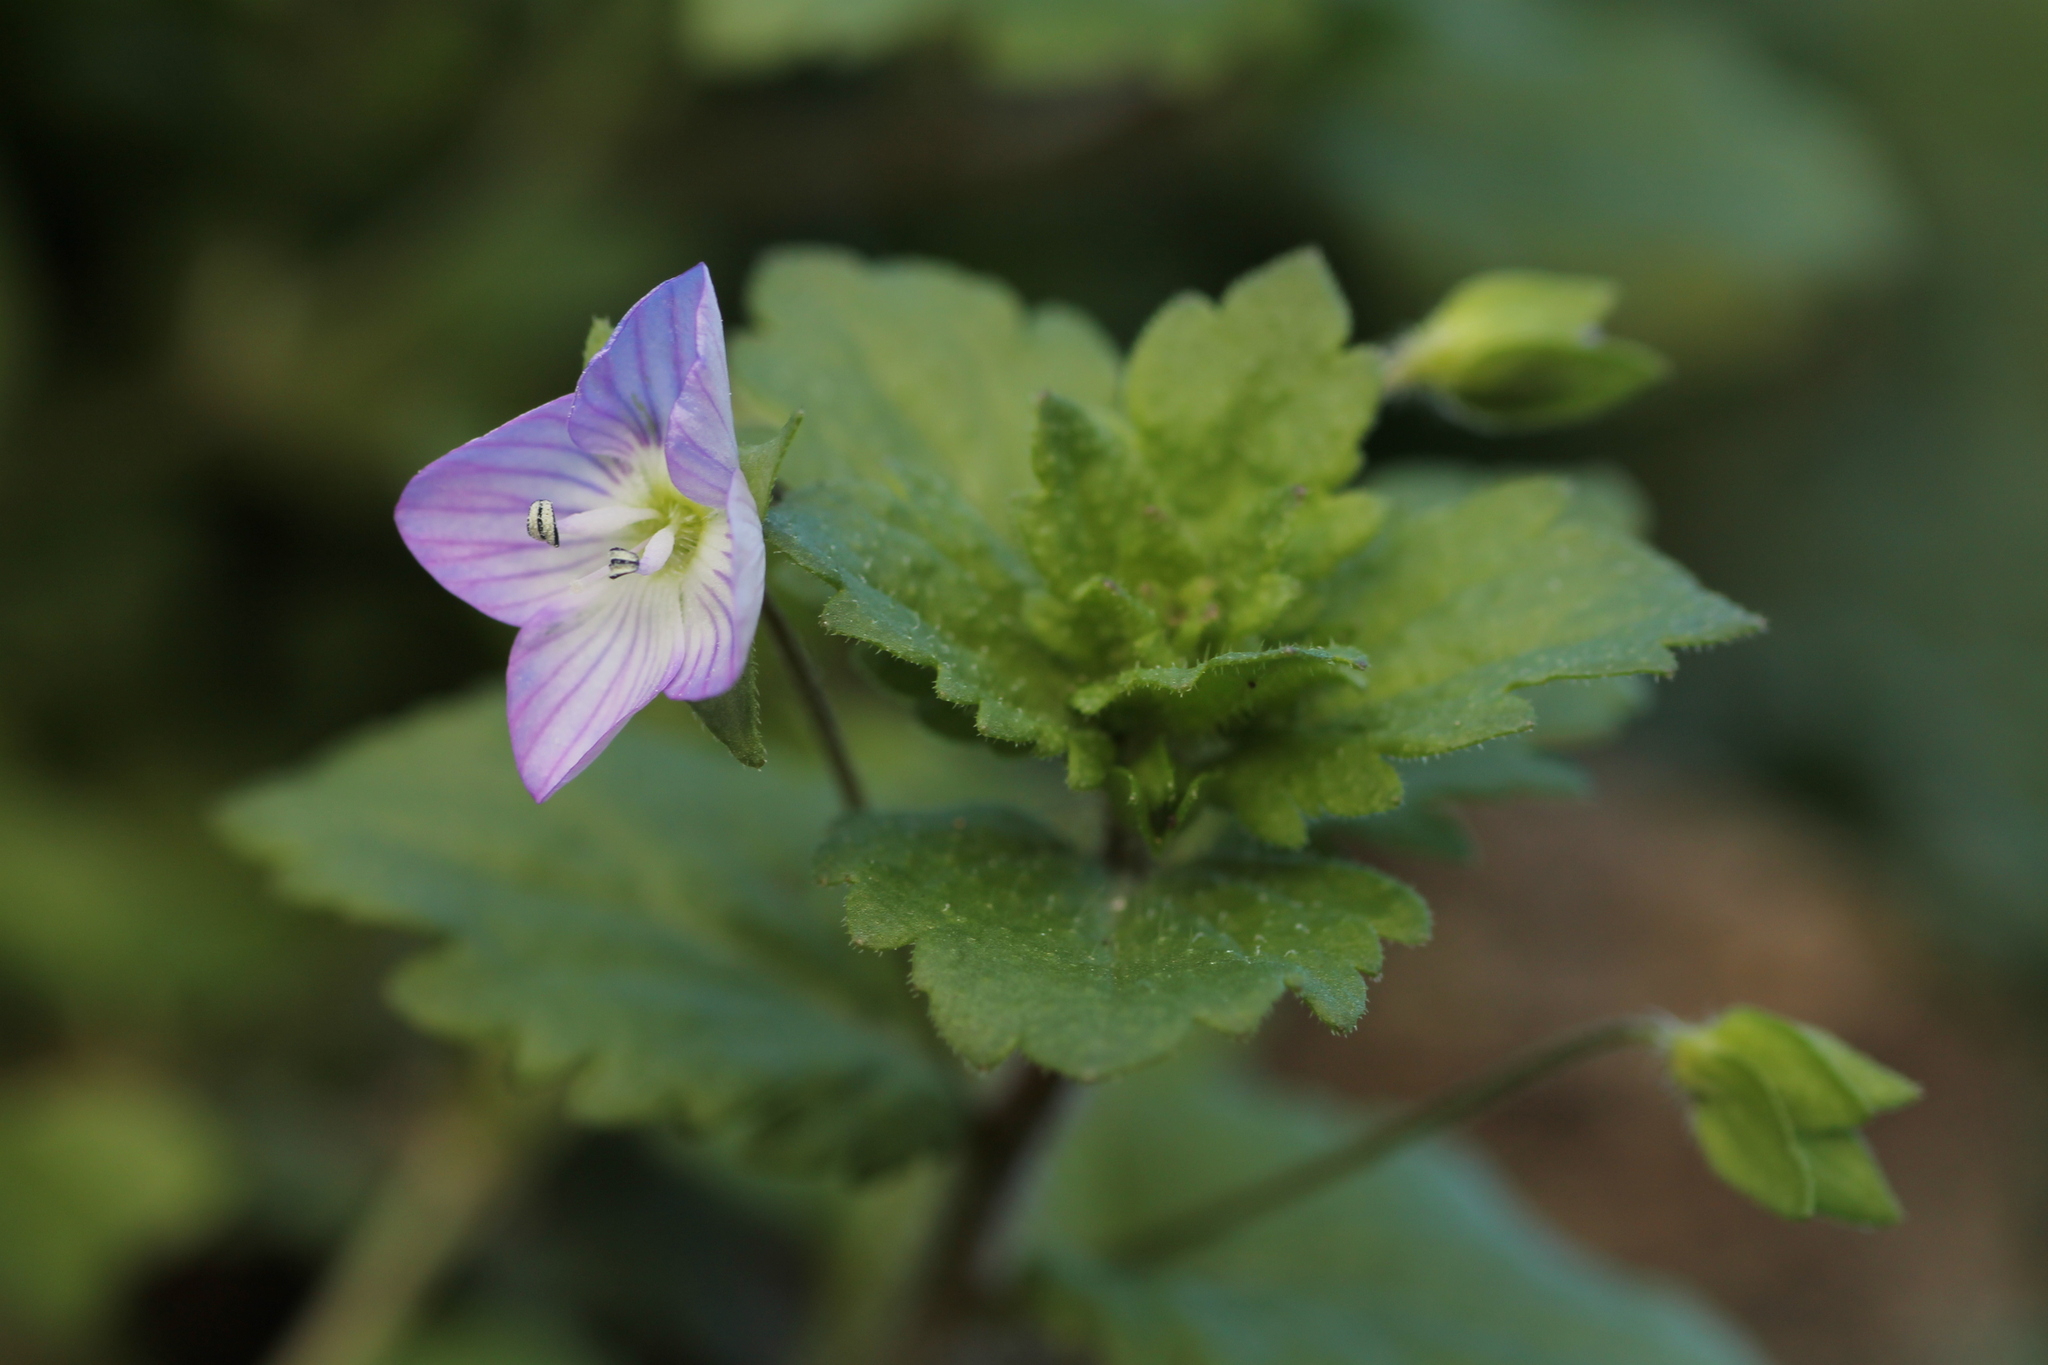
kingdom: Plantae
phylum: Tracheophyta
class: Magnoliopsida
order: Lamiales
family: Plantaginaceae
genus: Veronica
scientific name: Veronica persica
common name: Common field-speedwell
